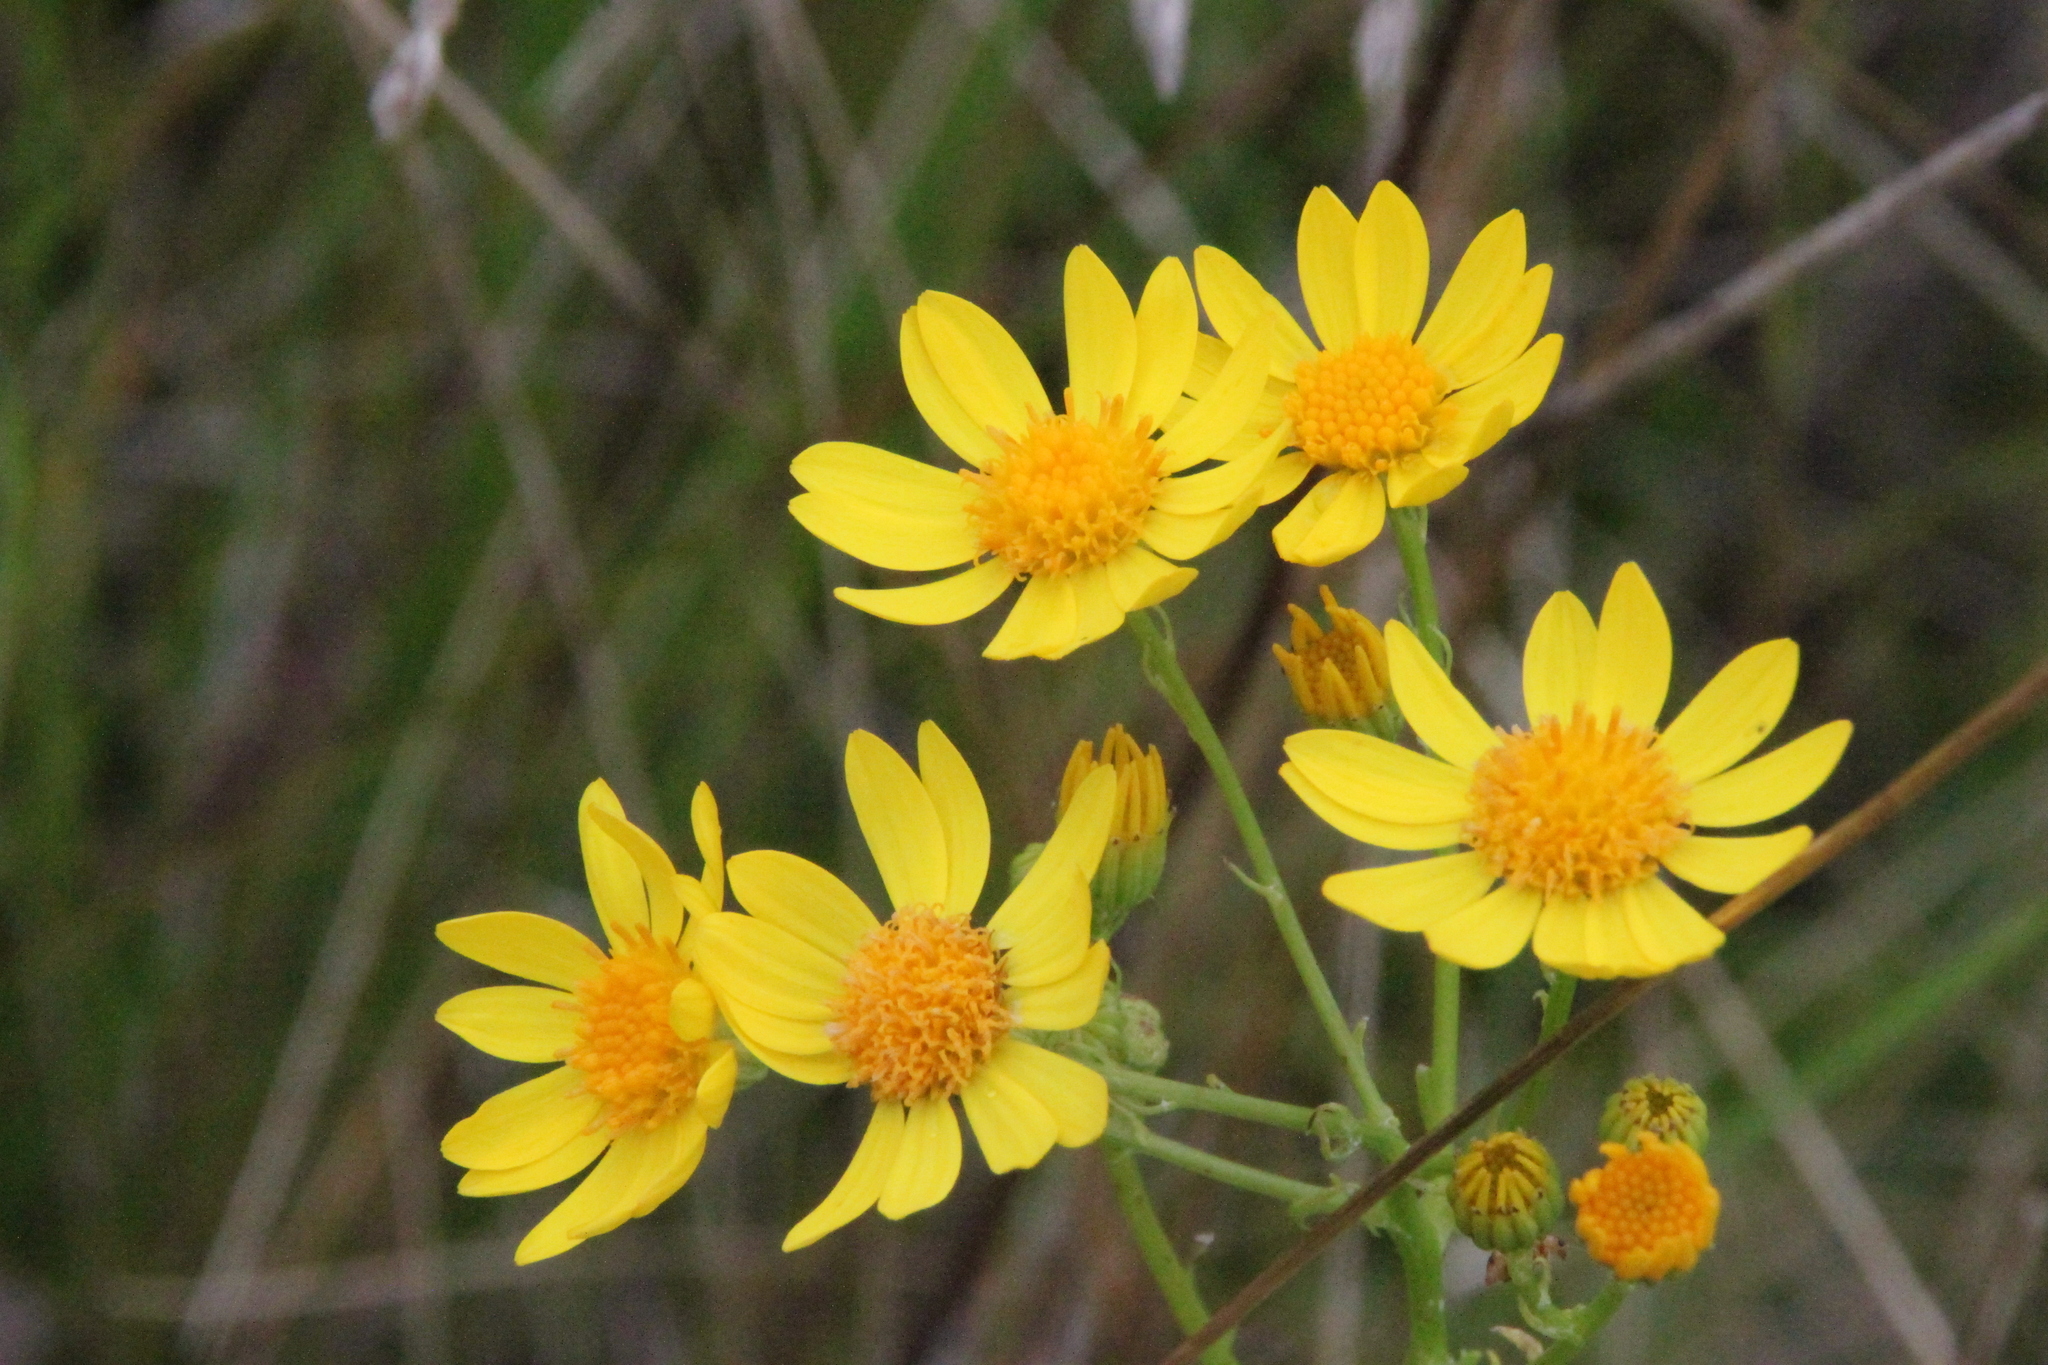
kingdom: Plantae
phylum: Tracheophyta
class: Magnoliopsida
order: Asterales
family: Asteraceae
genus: Jacobaea
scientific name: Jacobaea vulgaris
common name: Stinking willie
